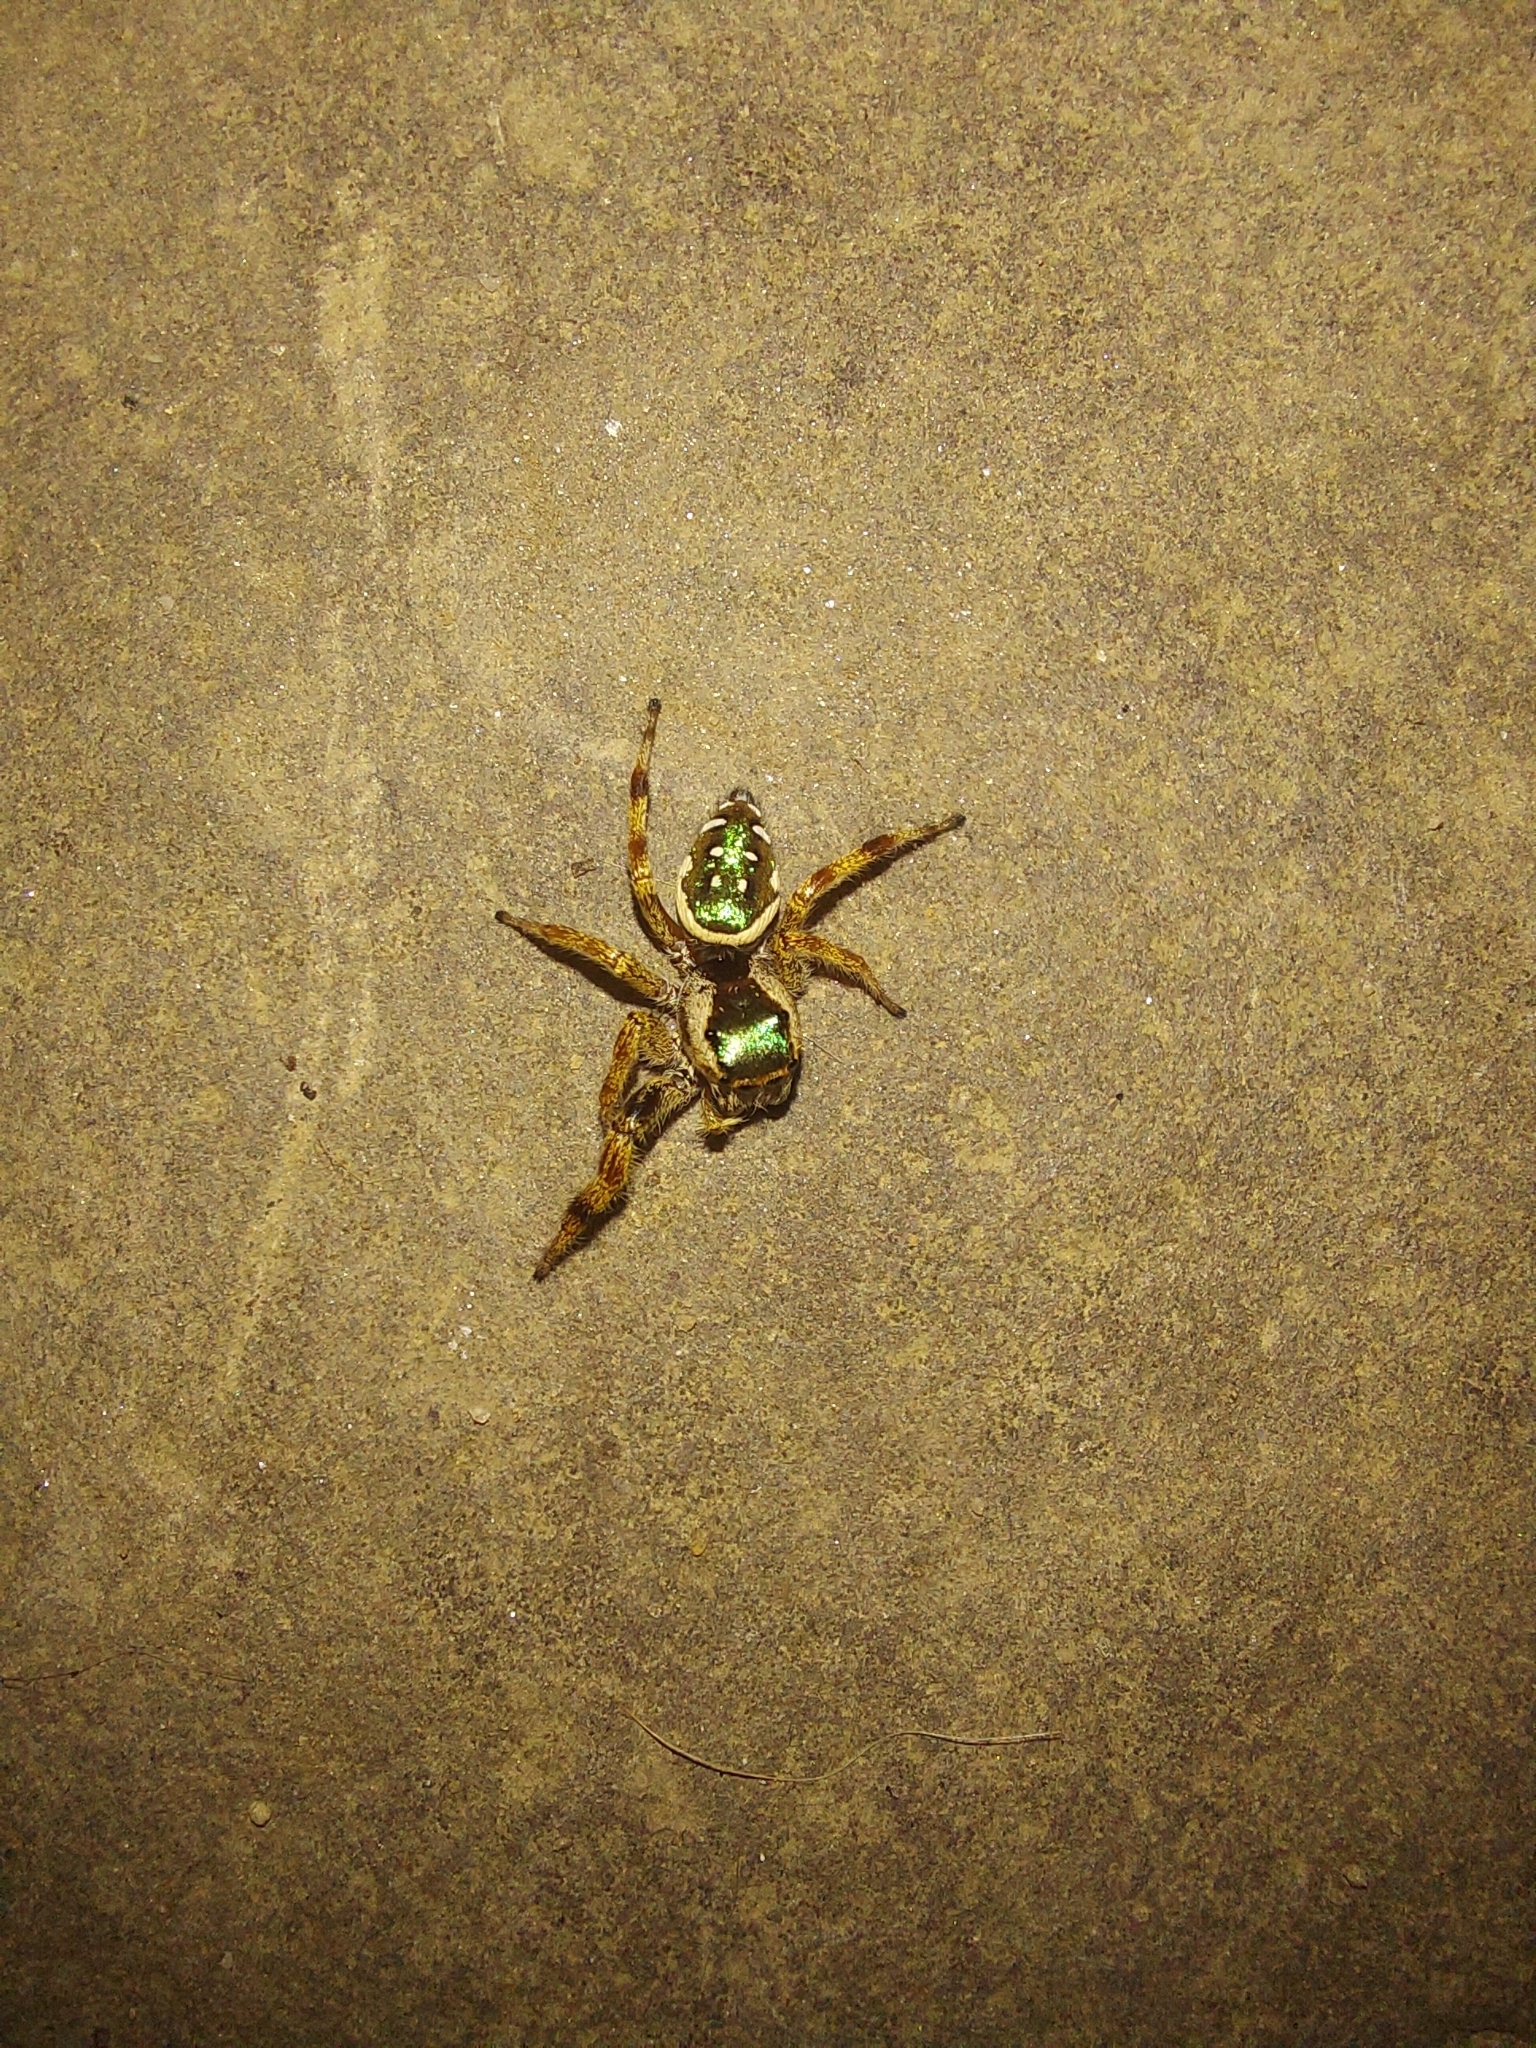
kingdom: Animalia
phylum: Arthropoda
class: Arachnida
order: Araneae
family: Salticidae
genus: Paraphidippus
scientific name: Paraphidippus aurantius
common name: Jumping spiders
